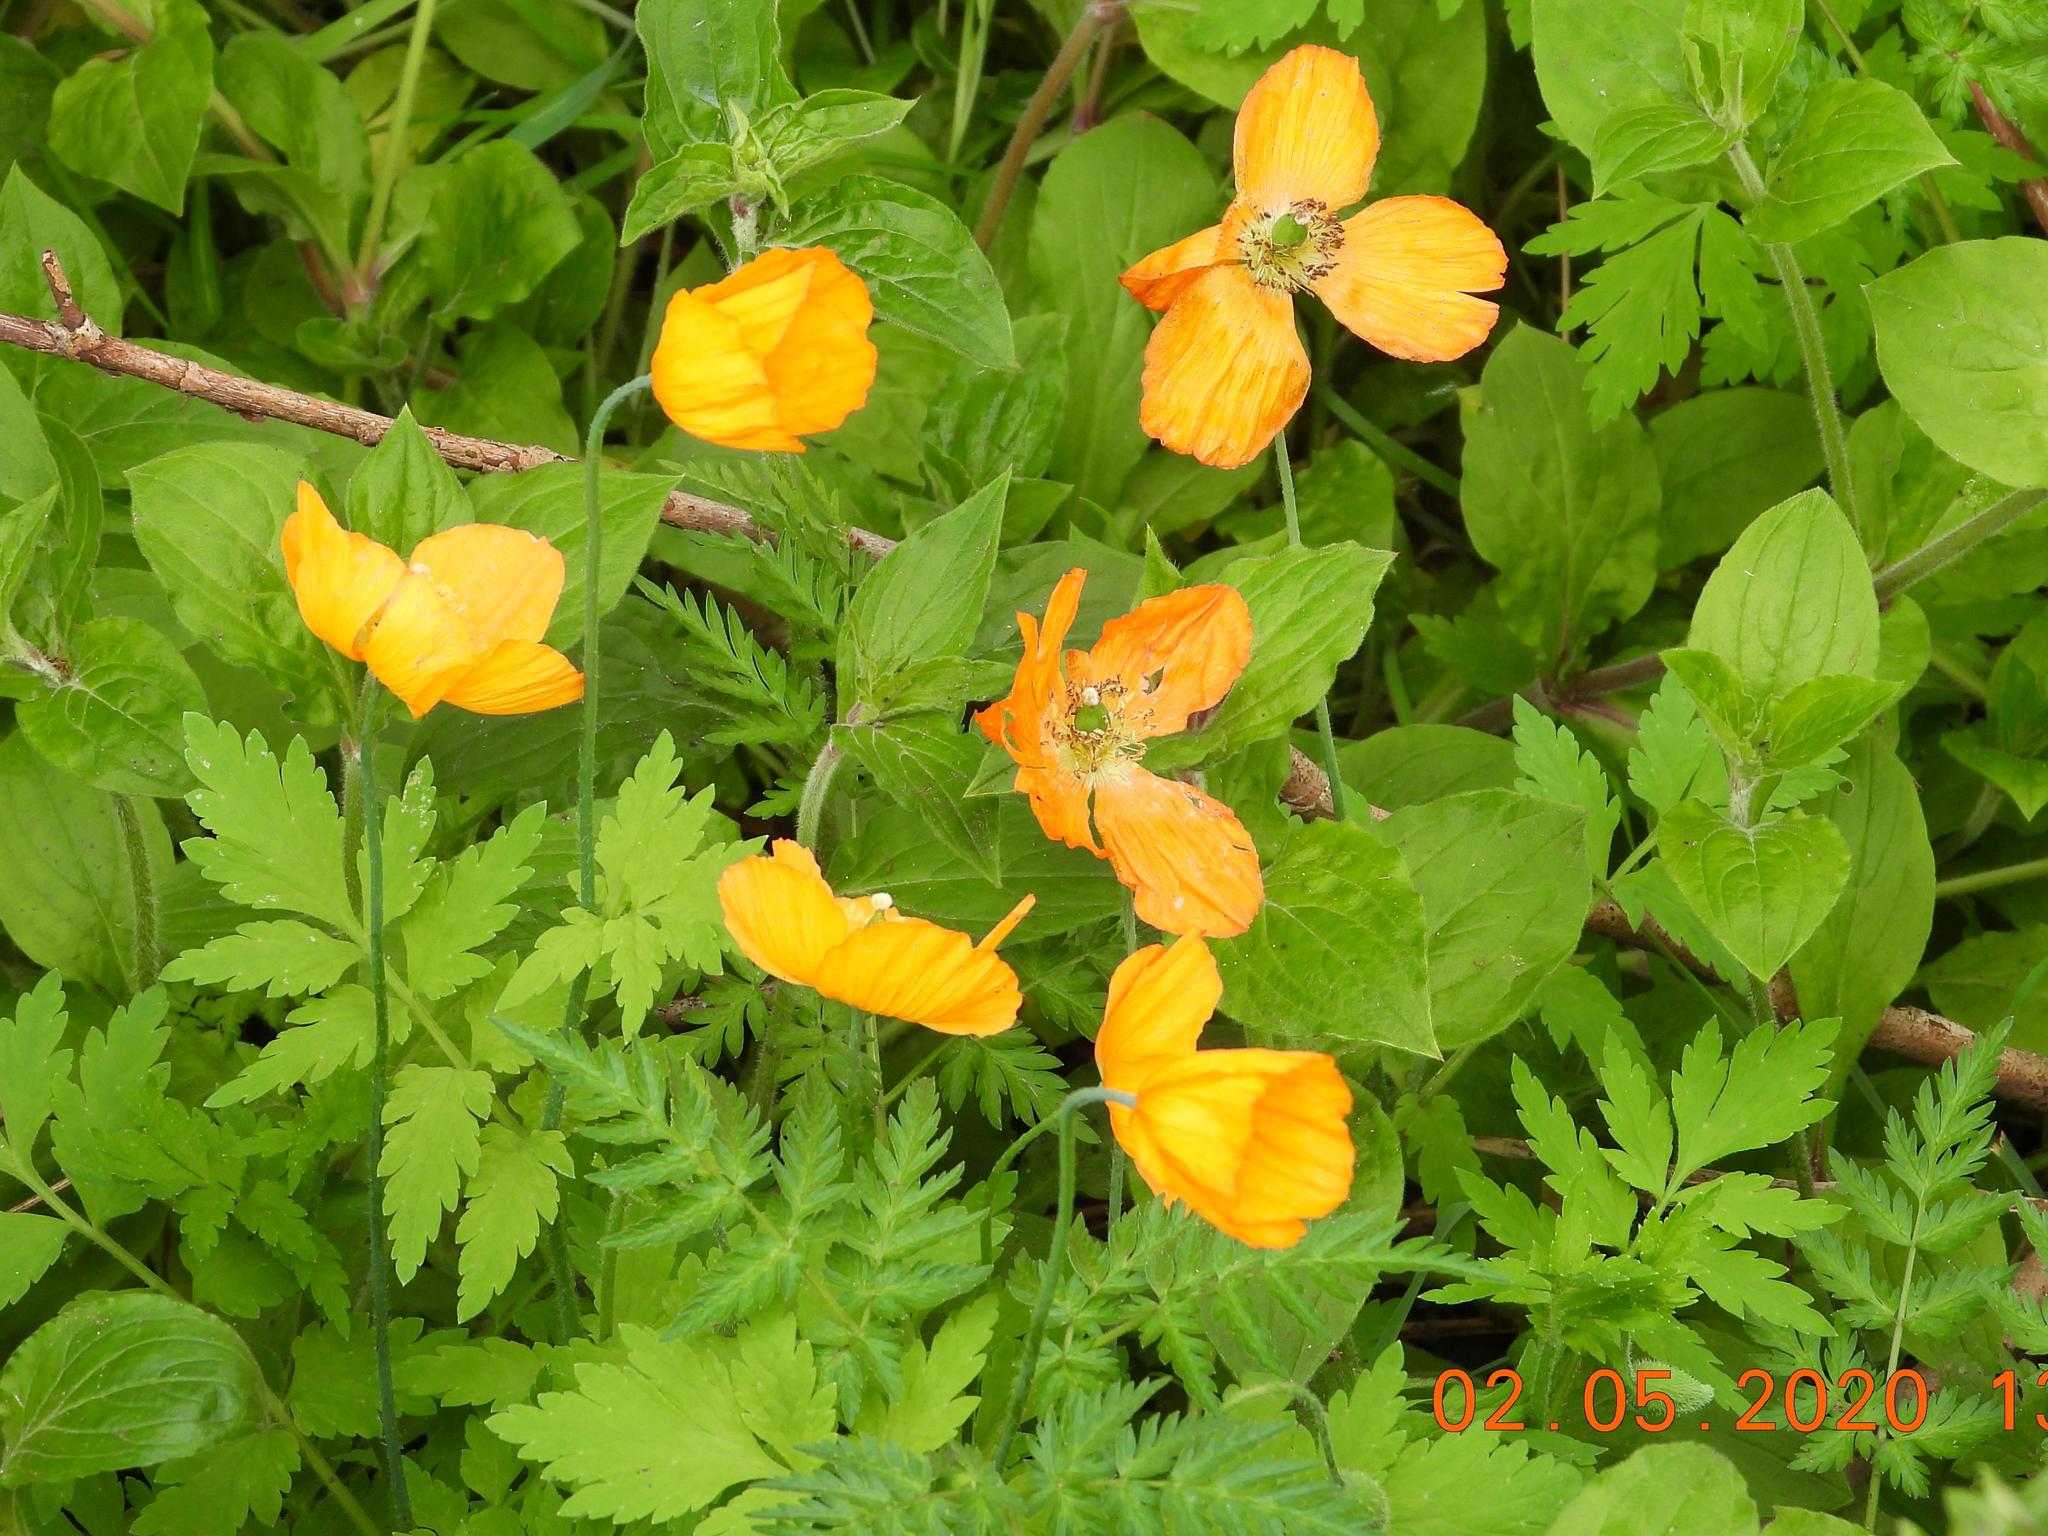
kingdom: Plantae
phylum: Tracheophyta
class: Magnoliopsida
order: Ranunculales
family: Papaveraceae
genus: Papaver
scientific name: Papaver cambricum
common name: Poppy
